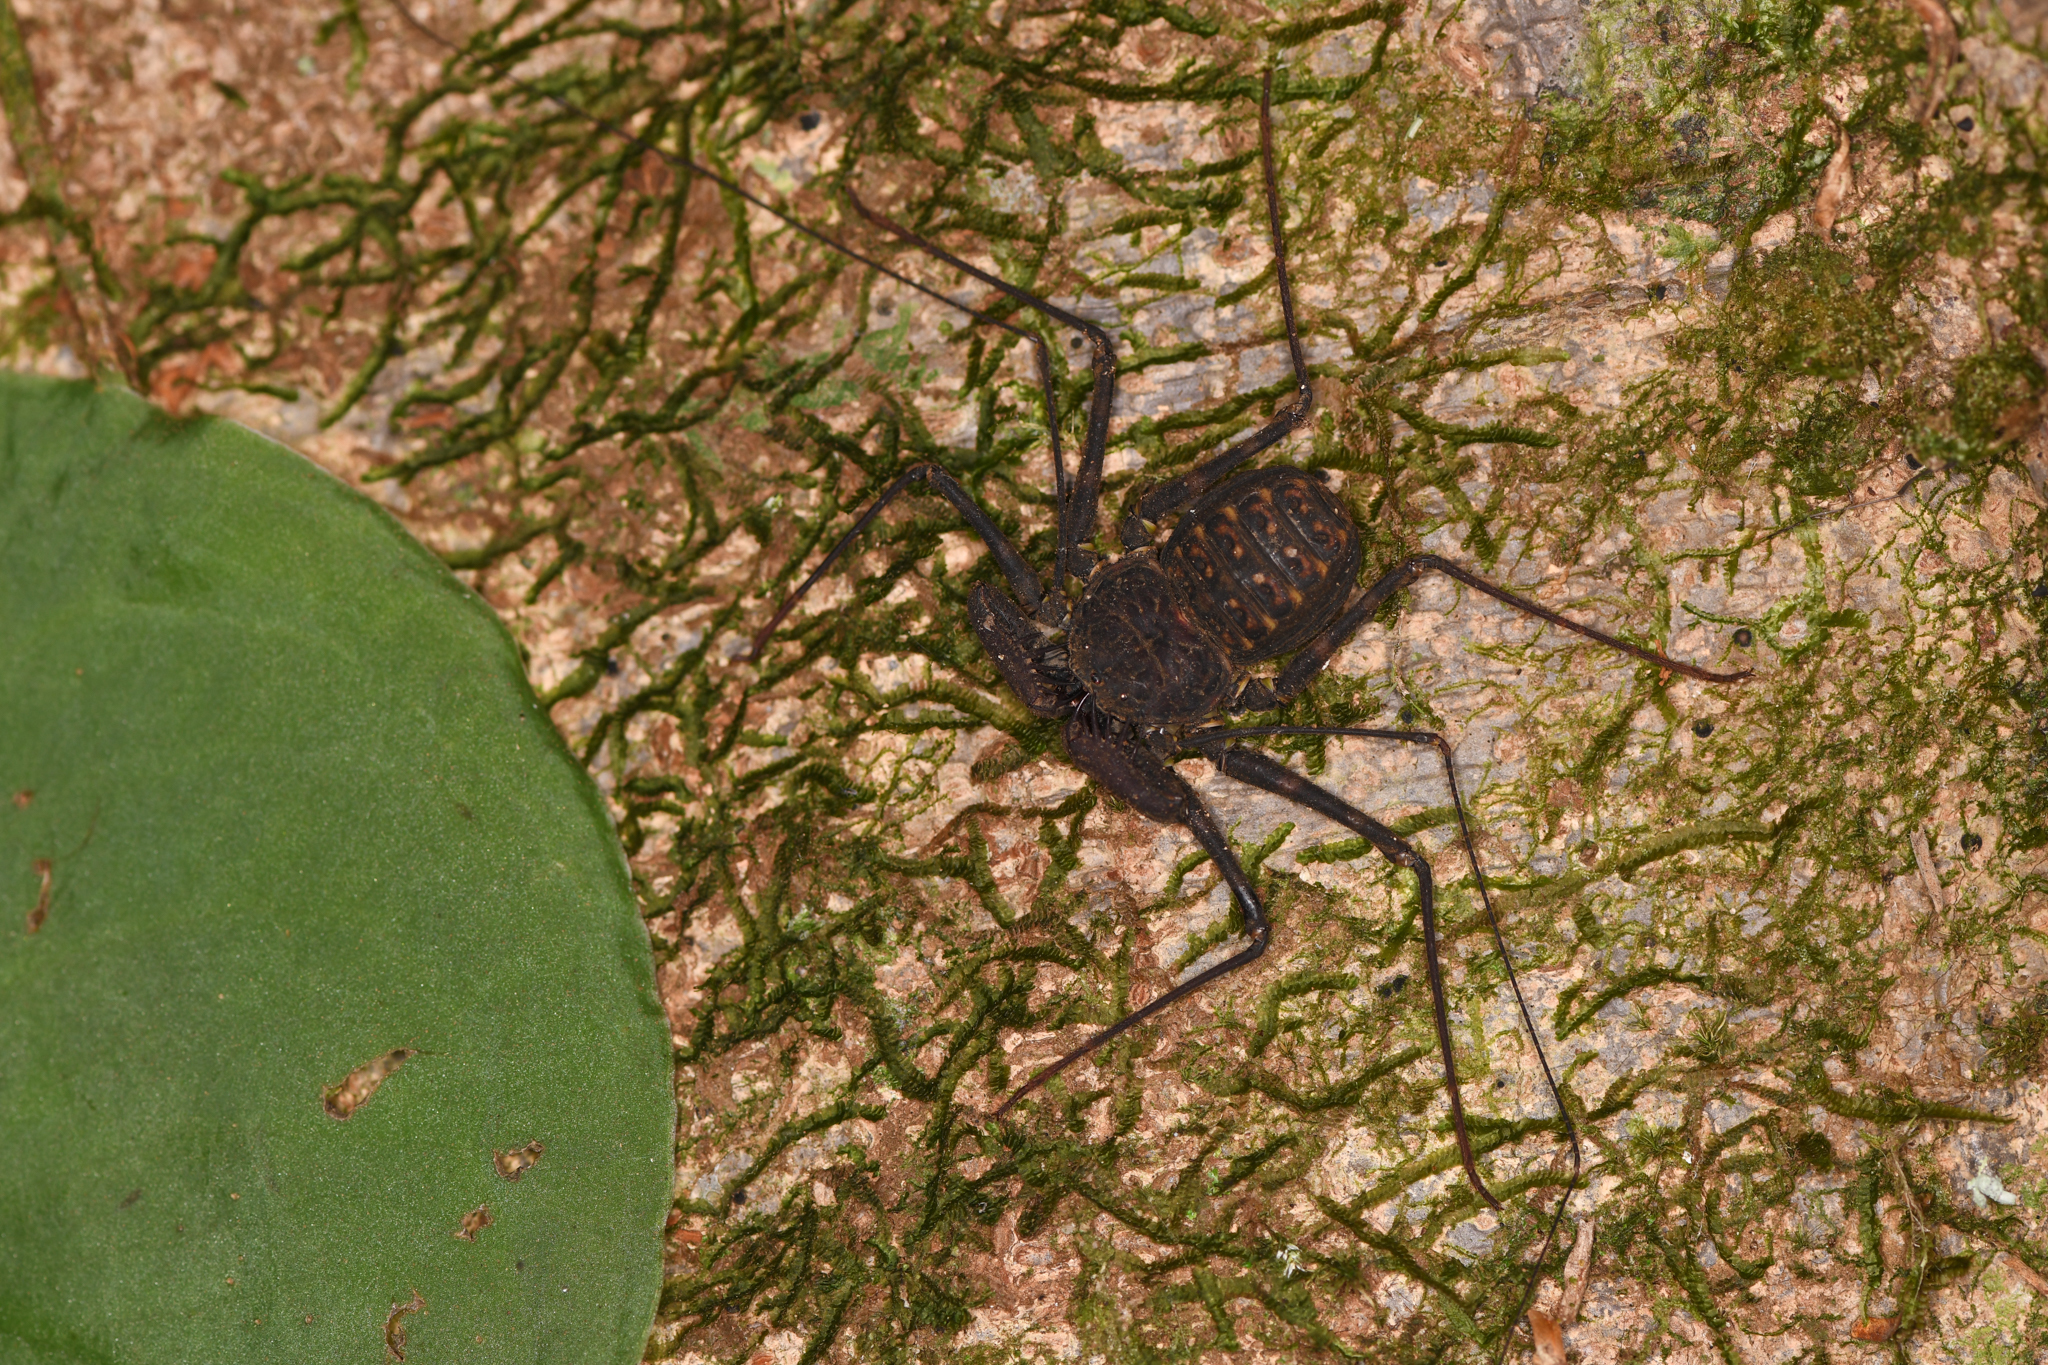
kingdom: Animalia
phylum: Arthropoda
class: Arachnida
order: Amblypygi
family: Phrynidae
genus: Phrynus
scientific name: Phrynus pseudoparvulus
